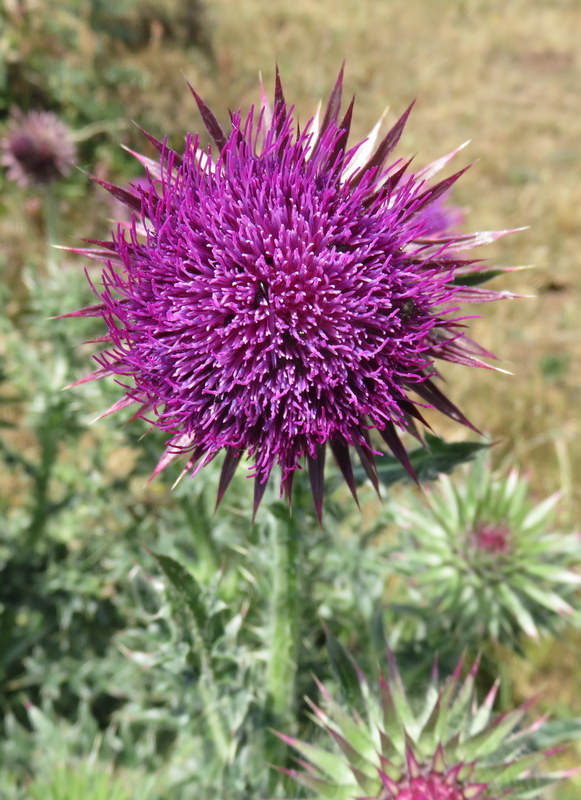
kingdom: Plantae
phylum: Tracheophyta
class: Magnoliopsida
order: Asterales
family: Asteraceae
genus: Carduus
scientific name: Carduus nutans
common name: Musk thistle
